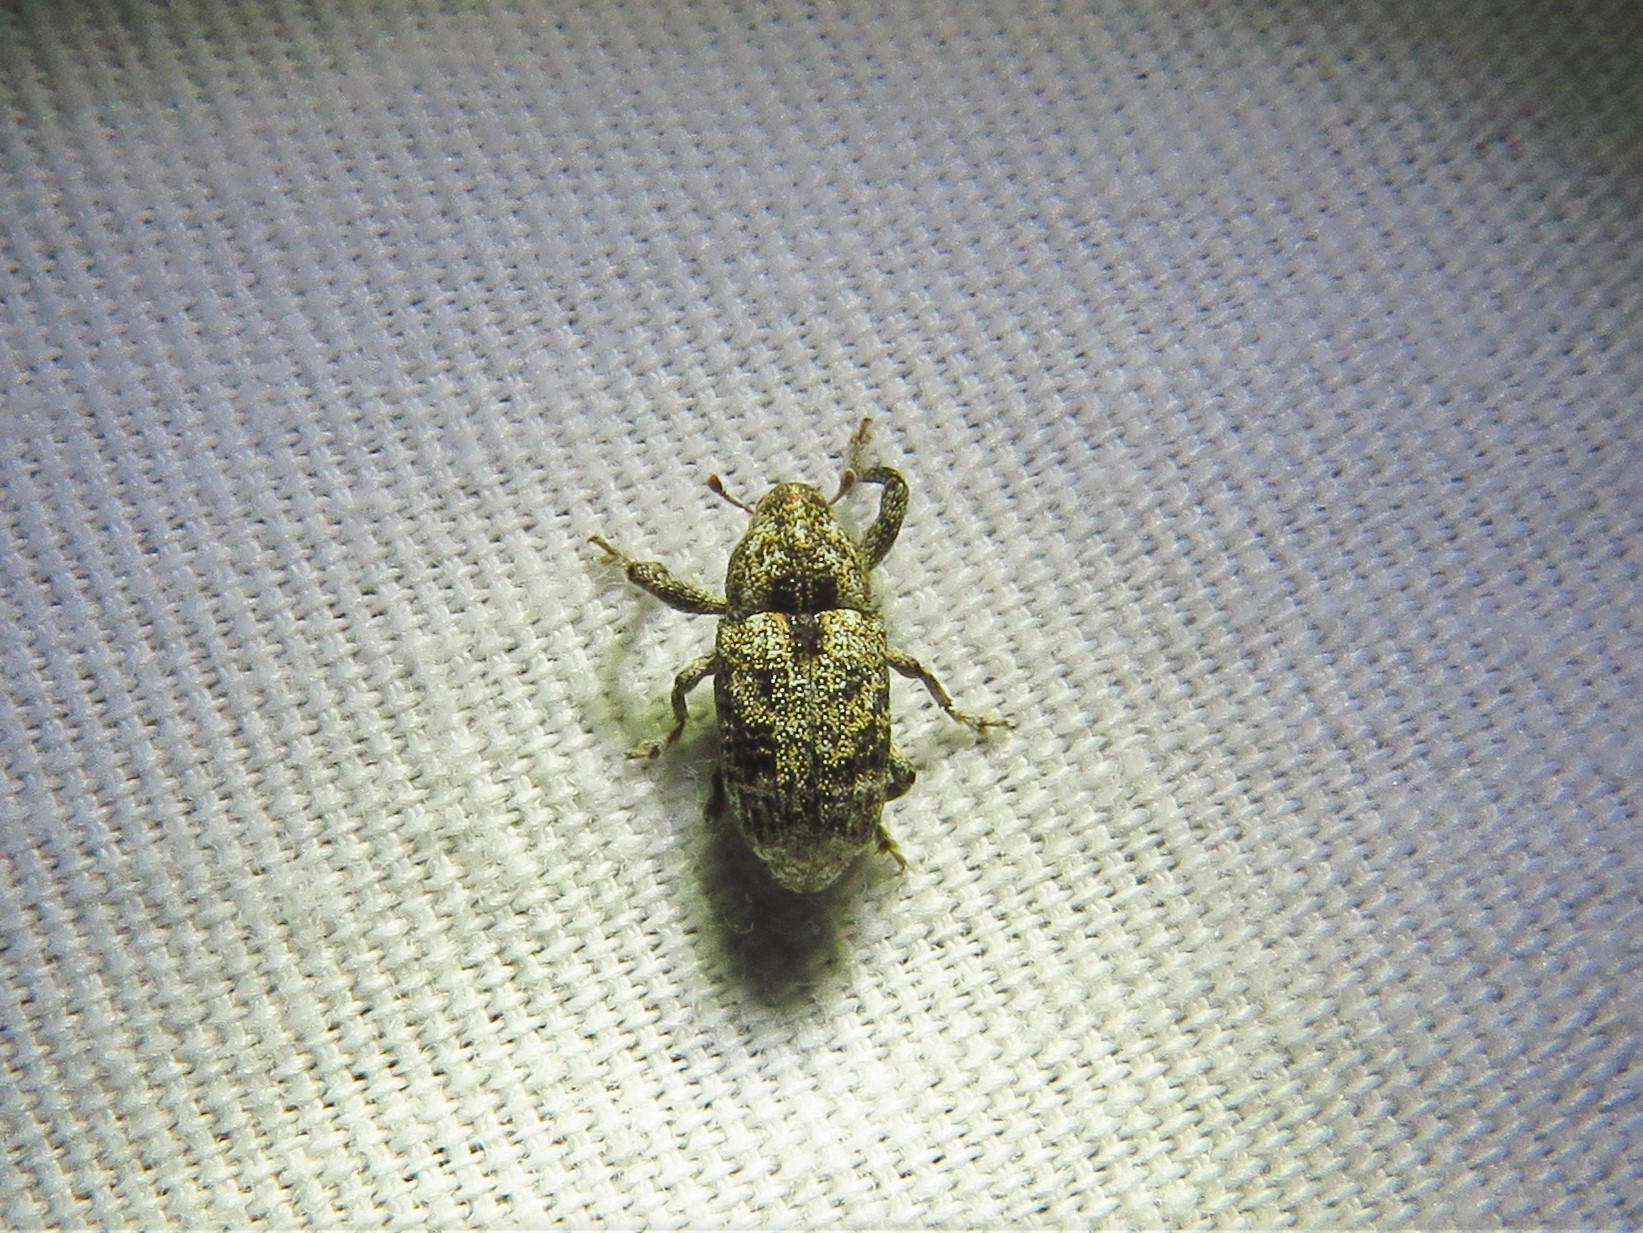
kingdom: Animalia
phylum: Arthropoda
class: Insecta
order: Coleoptera
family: Curculionidae
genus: Cophes
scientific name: Cophes texana
